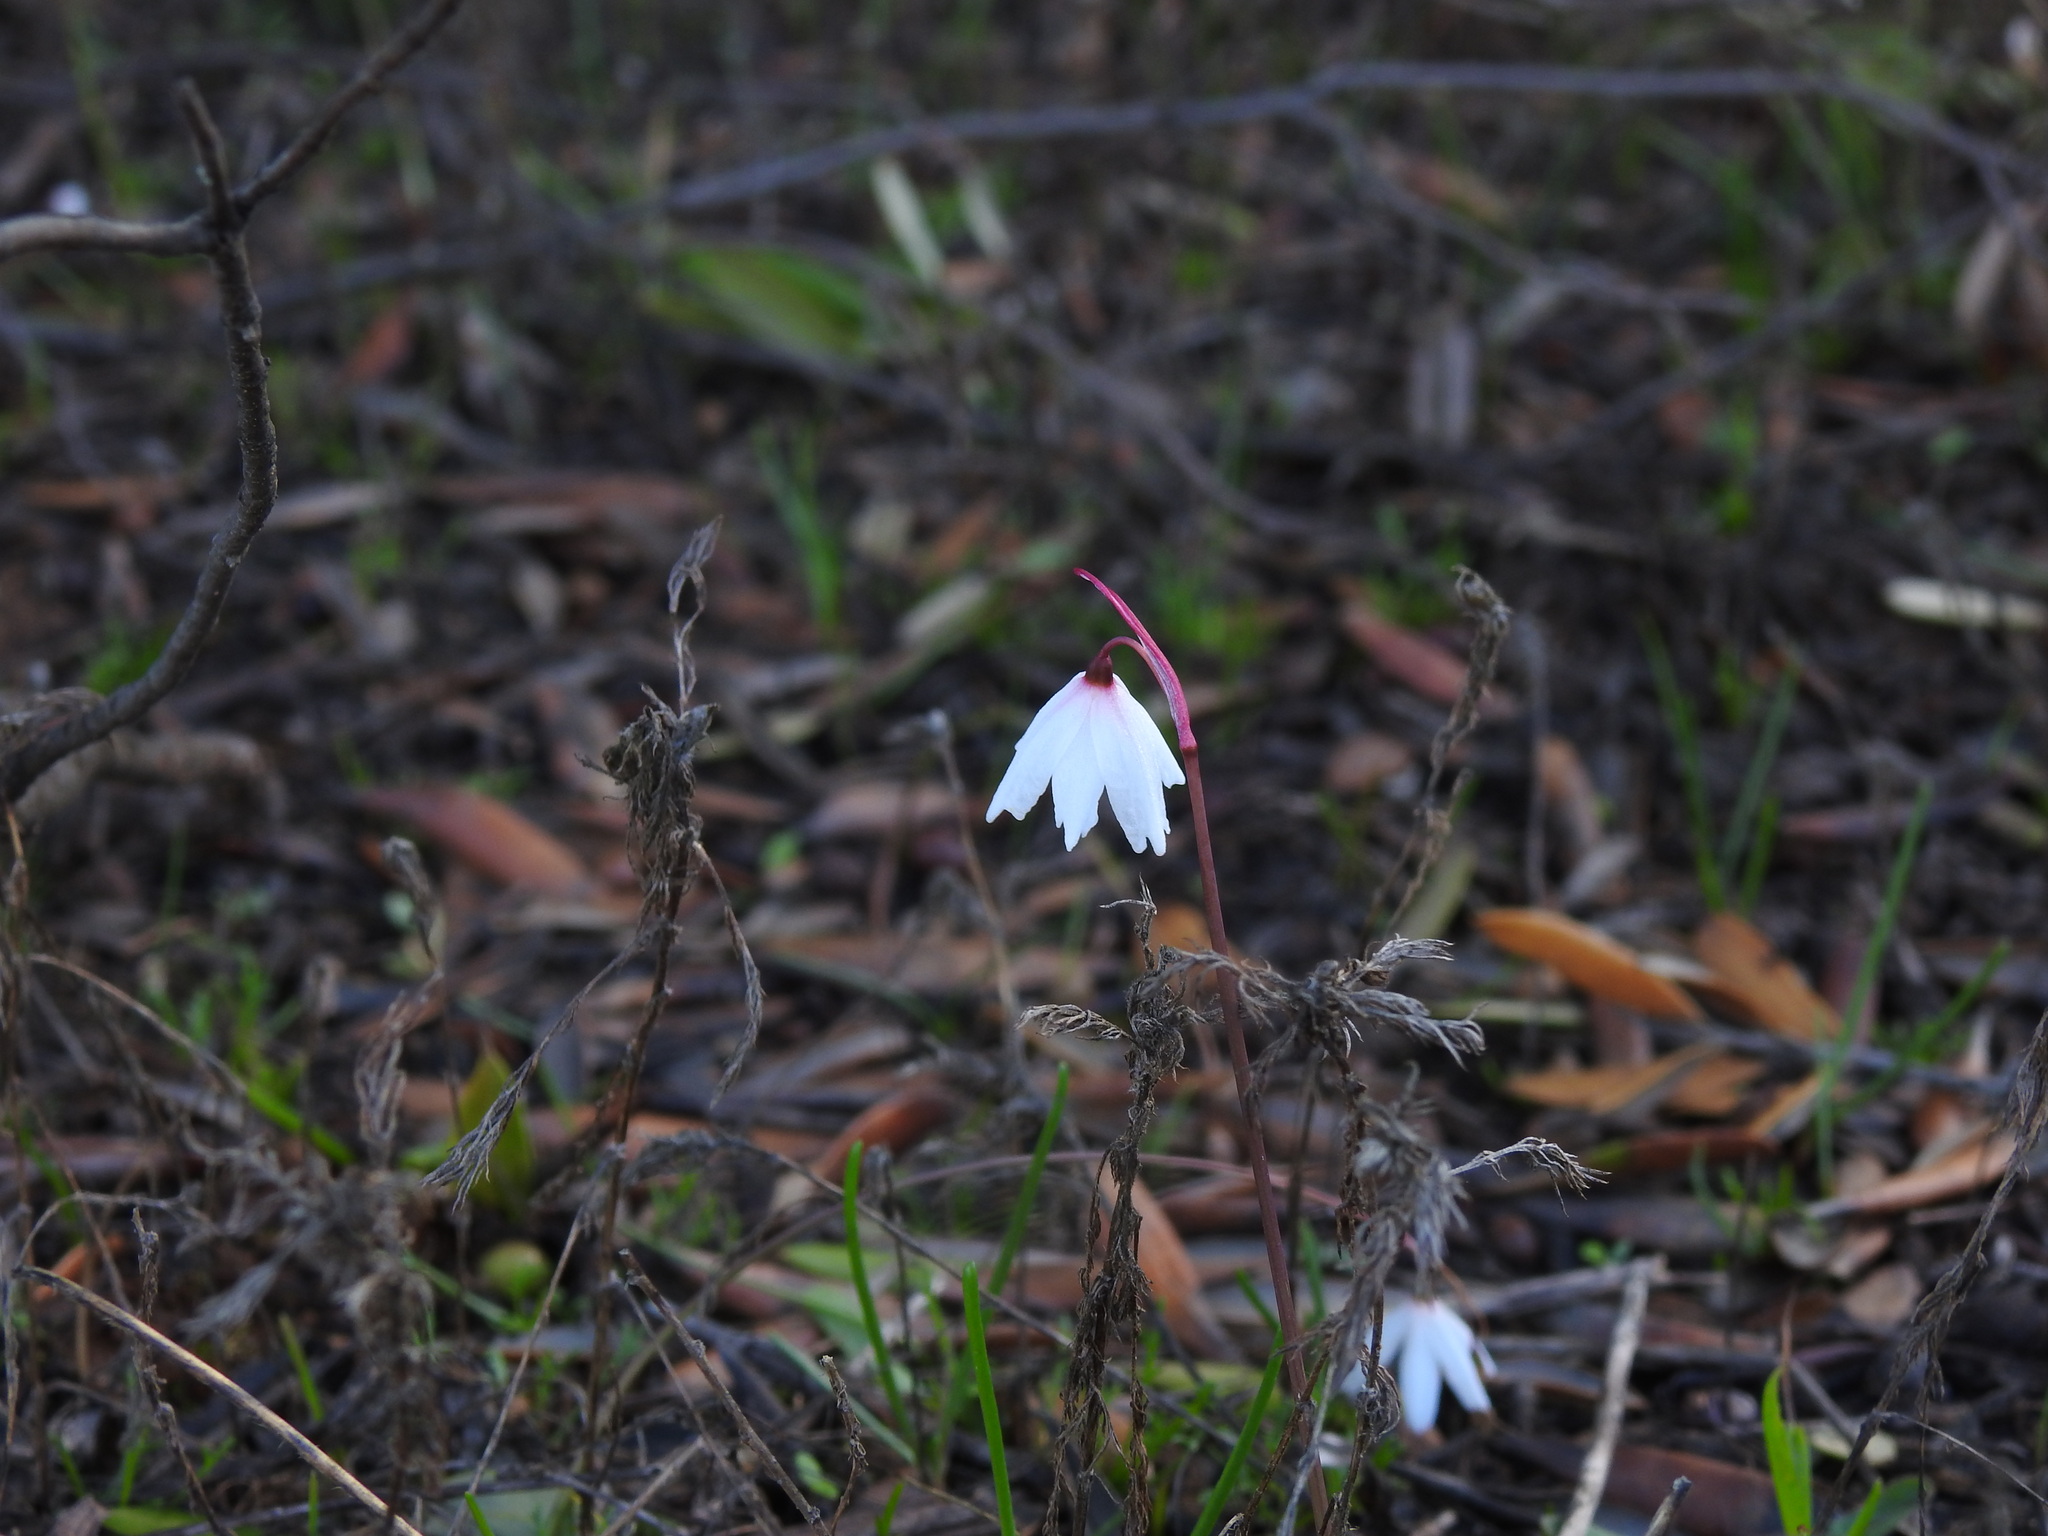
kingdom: Plantae
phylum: Tracheophyta
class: Liliopsida
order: Asparagales
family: Amaryllidaceae
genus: Acis
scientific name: Acis autumnalis
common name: Autumn snowflake
